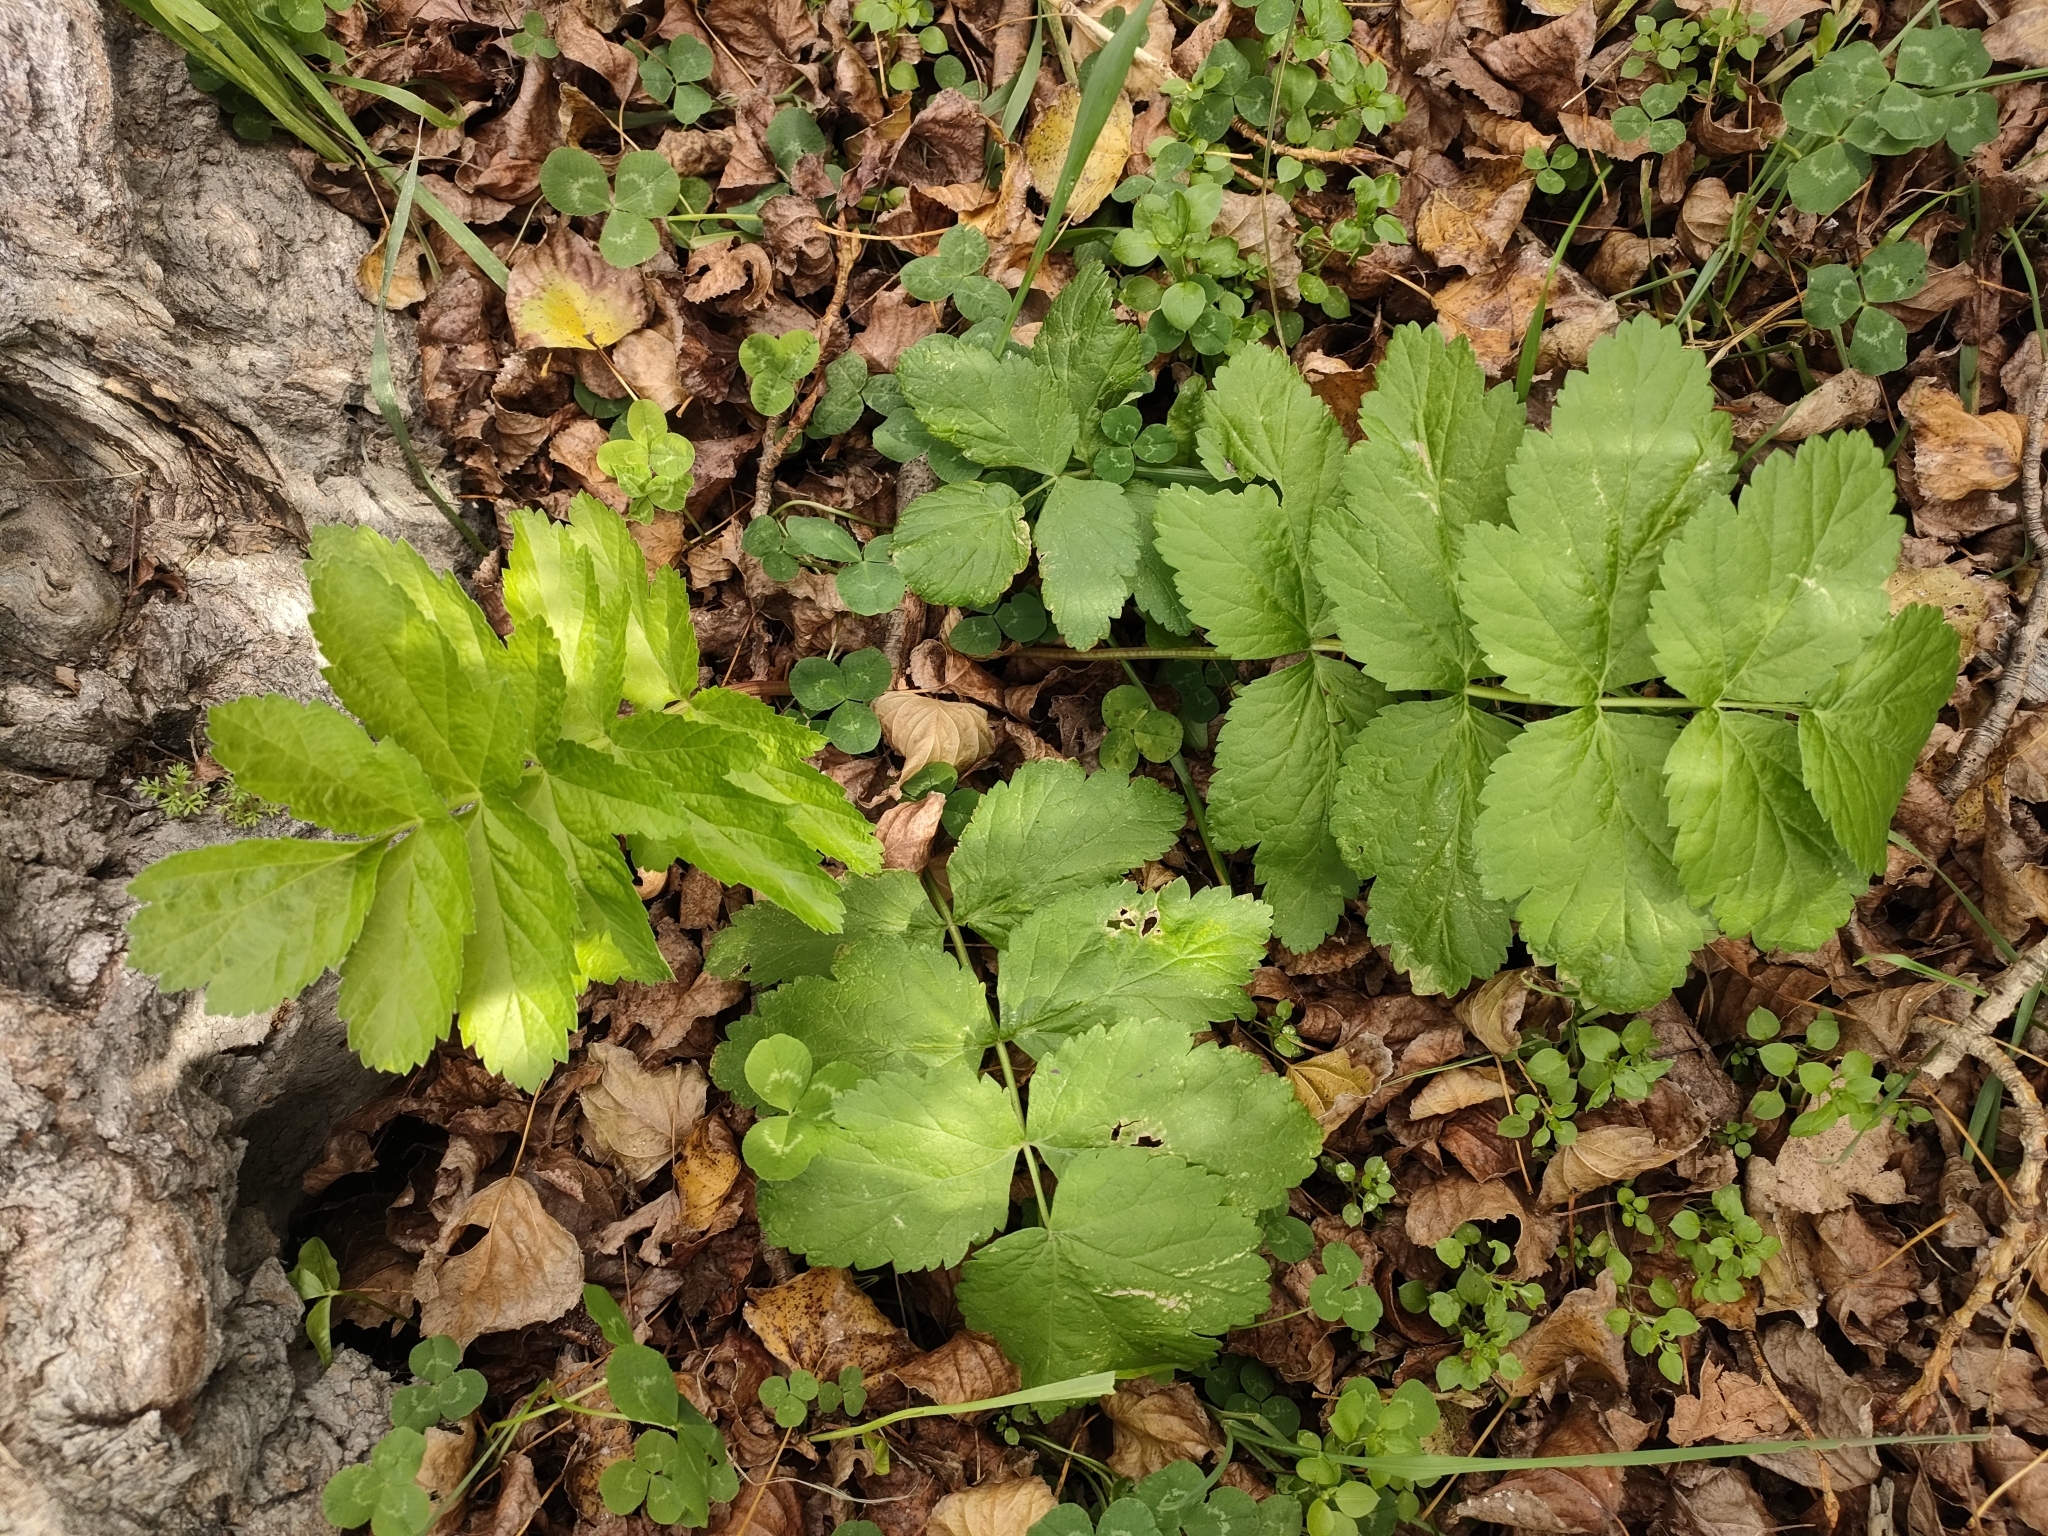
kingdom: Plantae
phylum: Tracheophyta
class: Magnoliopsida
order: Apiales
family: Apiaceae
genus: Pastinaca
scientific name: Pastinaca sativa
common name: Wild parsnip
